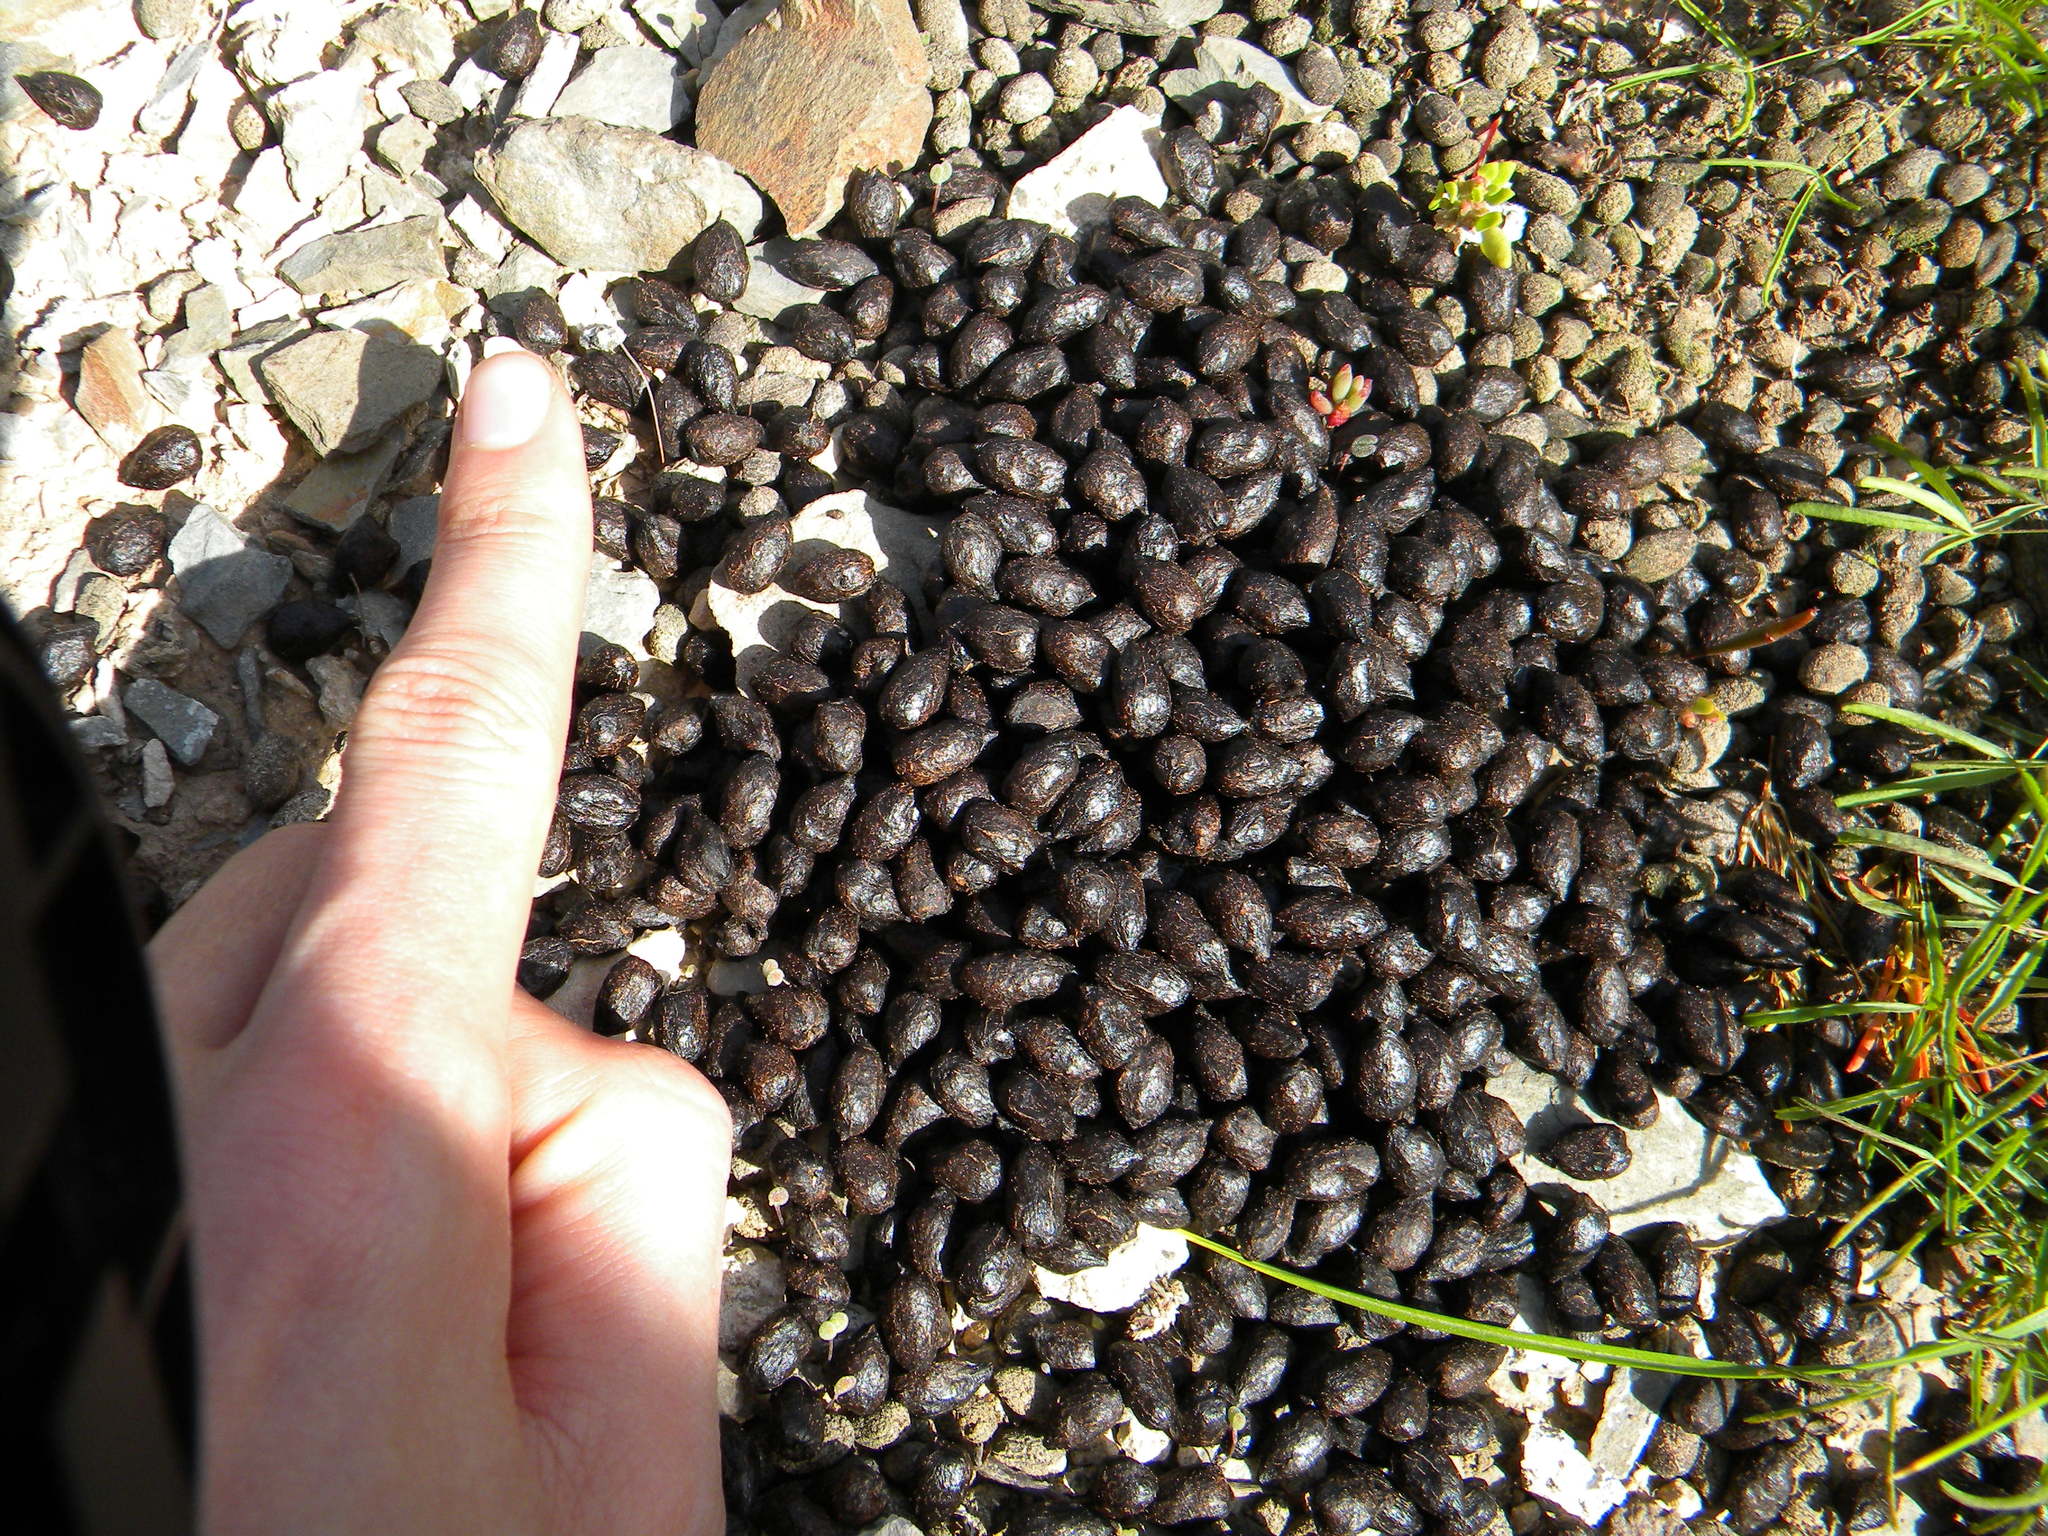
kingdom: Animalia
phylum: Chordata
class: Mammalia
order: Artiodactyla
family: Bovidae
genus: Sylvicapra
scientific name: Sylvicapra grimmia
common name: Bush duiker
